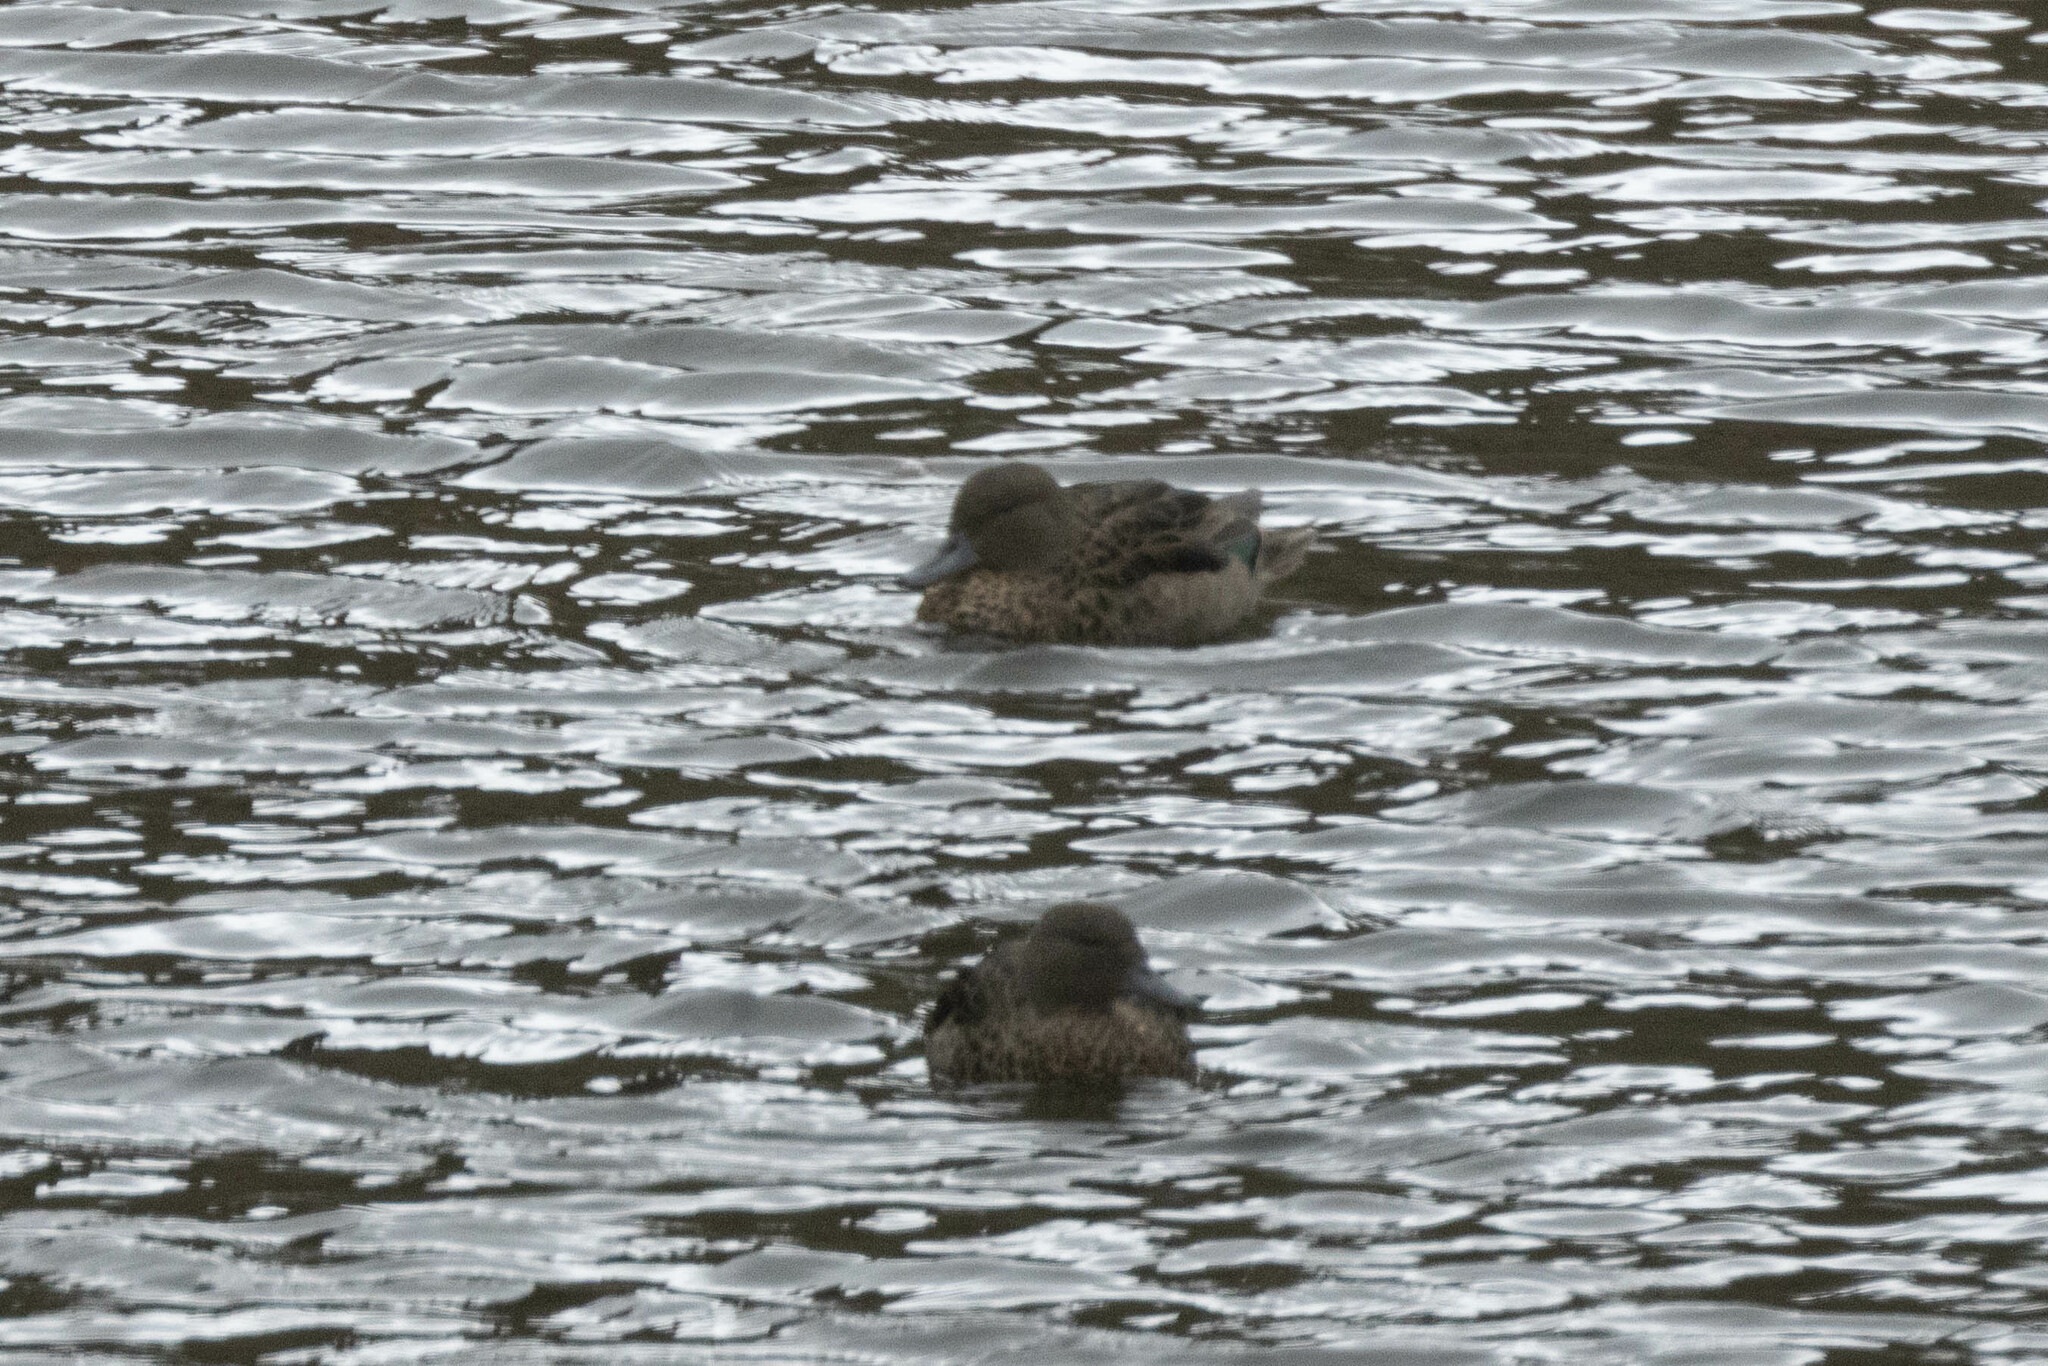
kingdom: Animalia
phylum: Chordata
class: Aves
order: Anseriformes
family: Anatidae
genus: Anas
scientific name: Anas andium
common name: Andean teal
